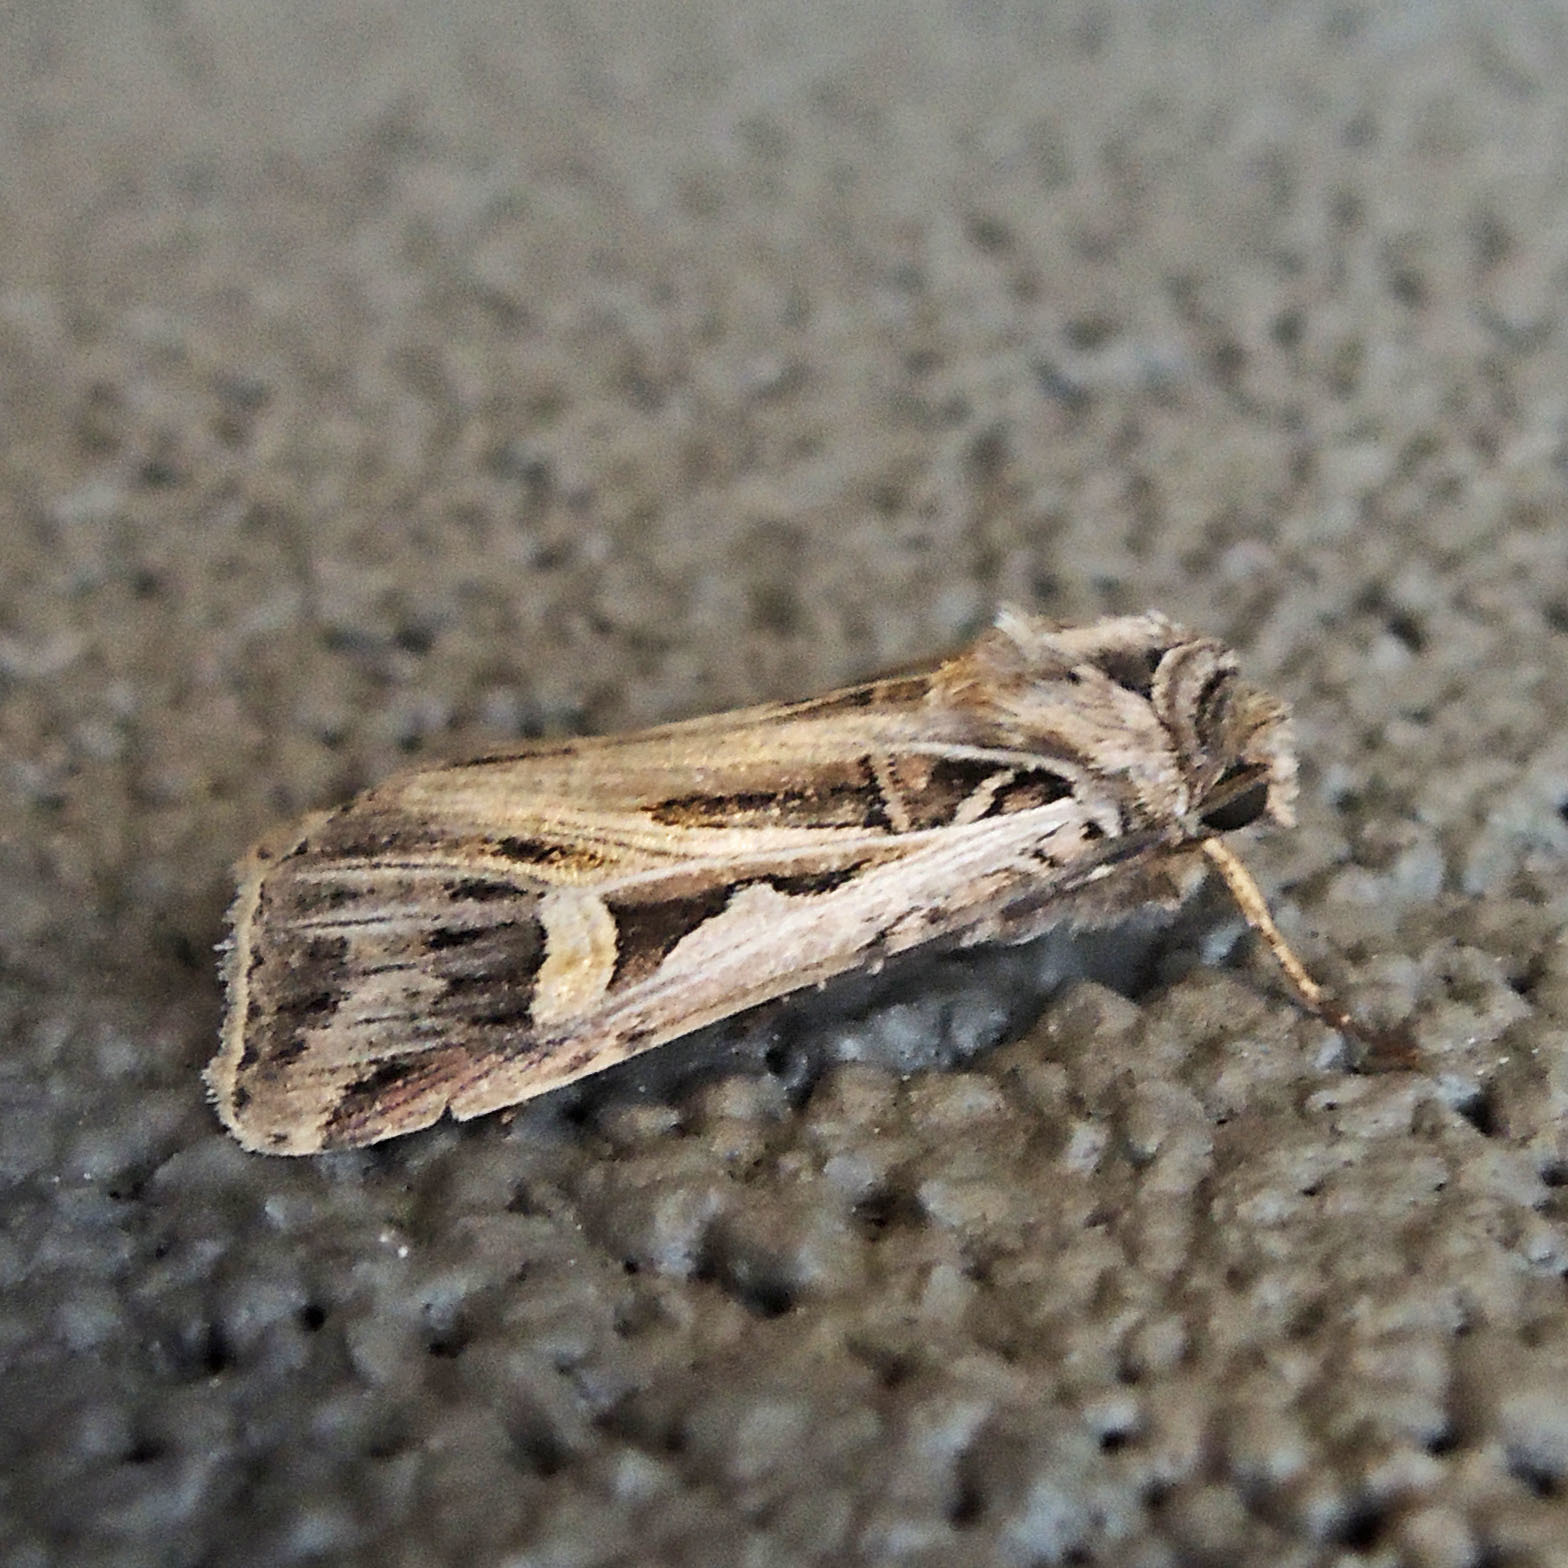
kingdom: Animalia
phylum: Arthropoda
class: Insecta
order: Lepidoptera
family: Noctuidae
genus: Feltia
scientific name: Feltia jaculifera
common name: Dingy cutworm moth
